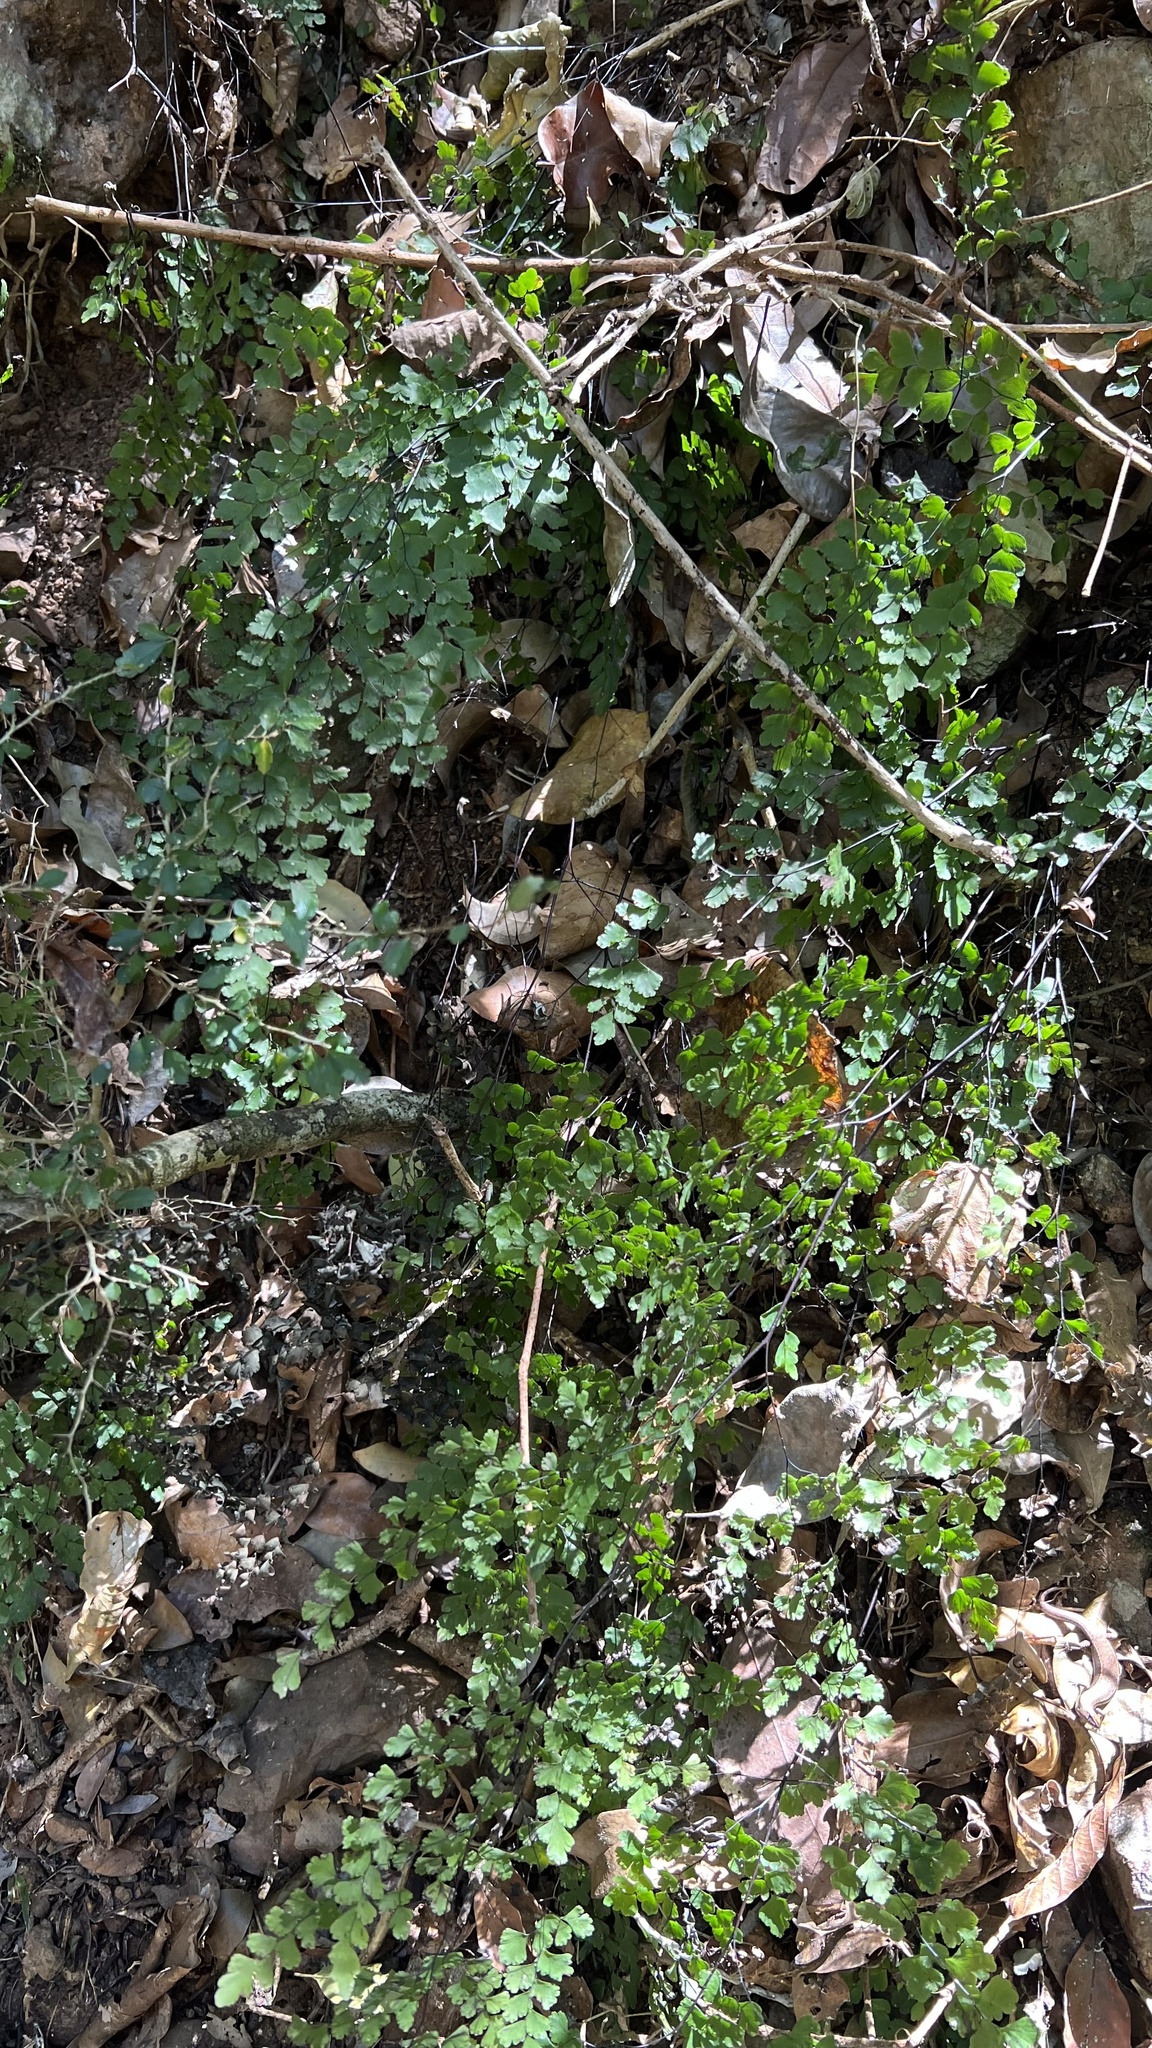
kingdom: Plantae
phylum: Tracheophyta
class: Polypodiopsida
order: Polypodiales
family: Pteridaceae
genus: Adiantum
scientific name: Adiantum atroviride
